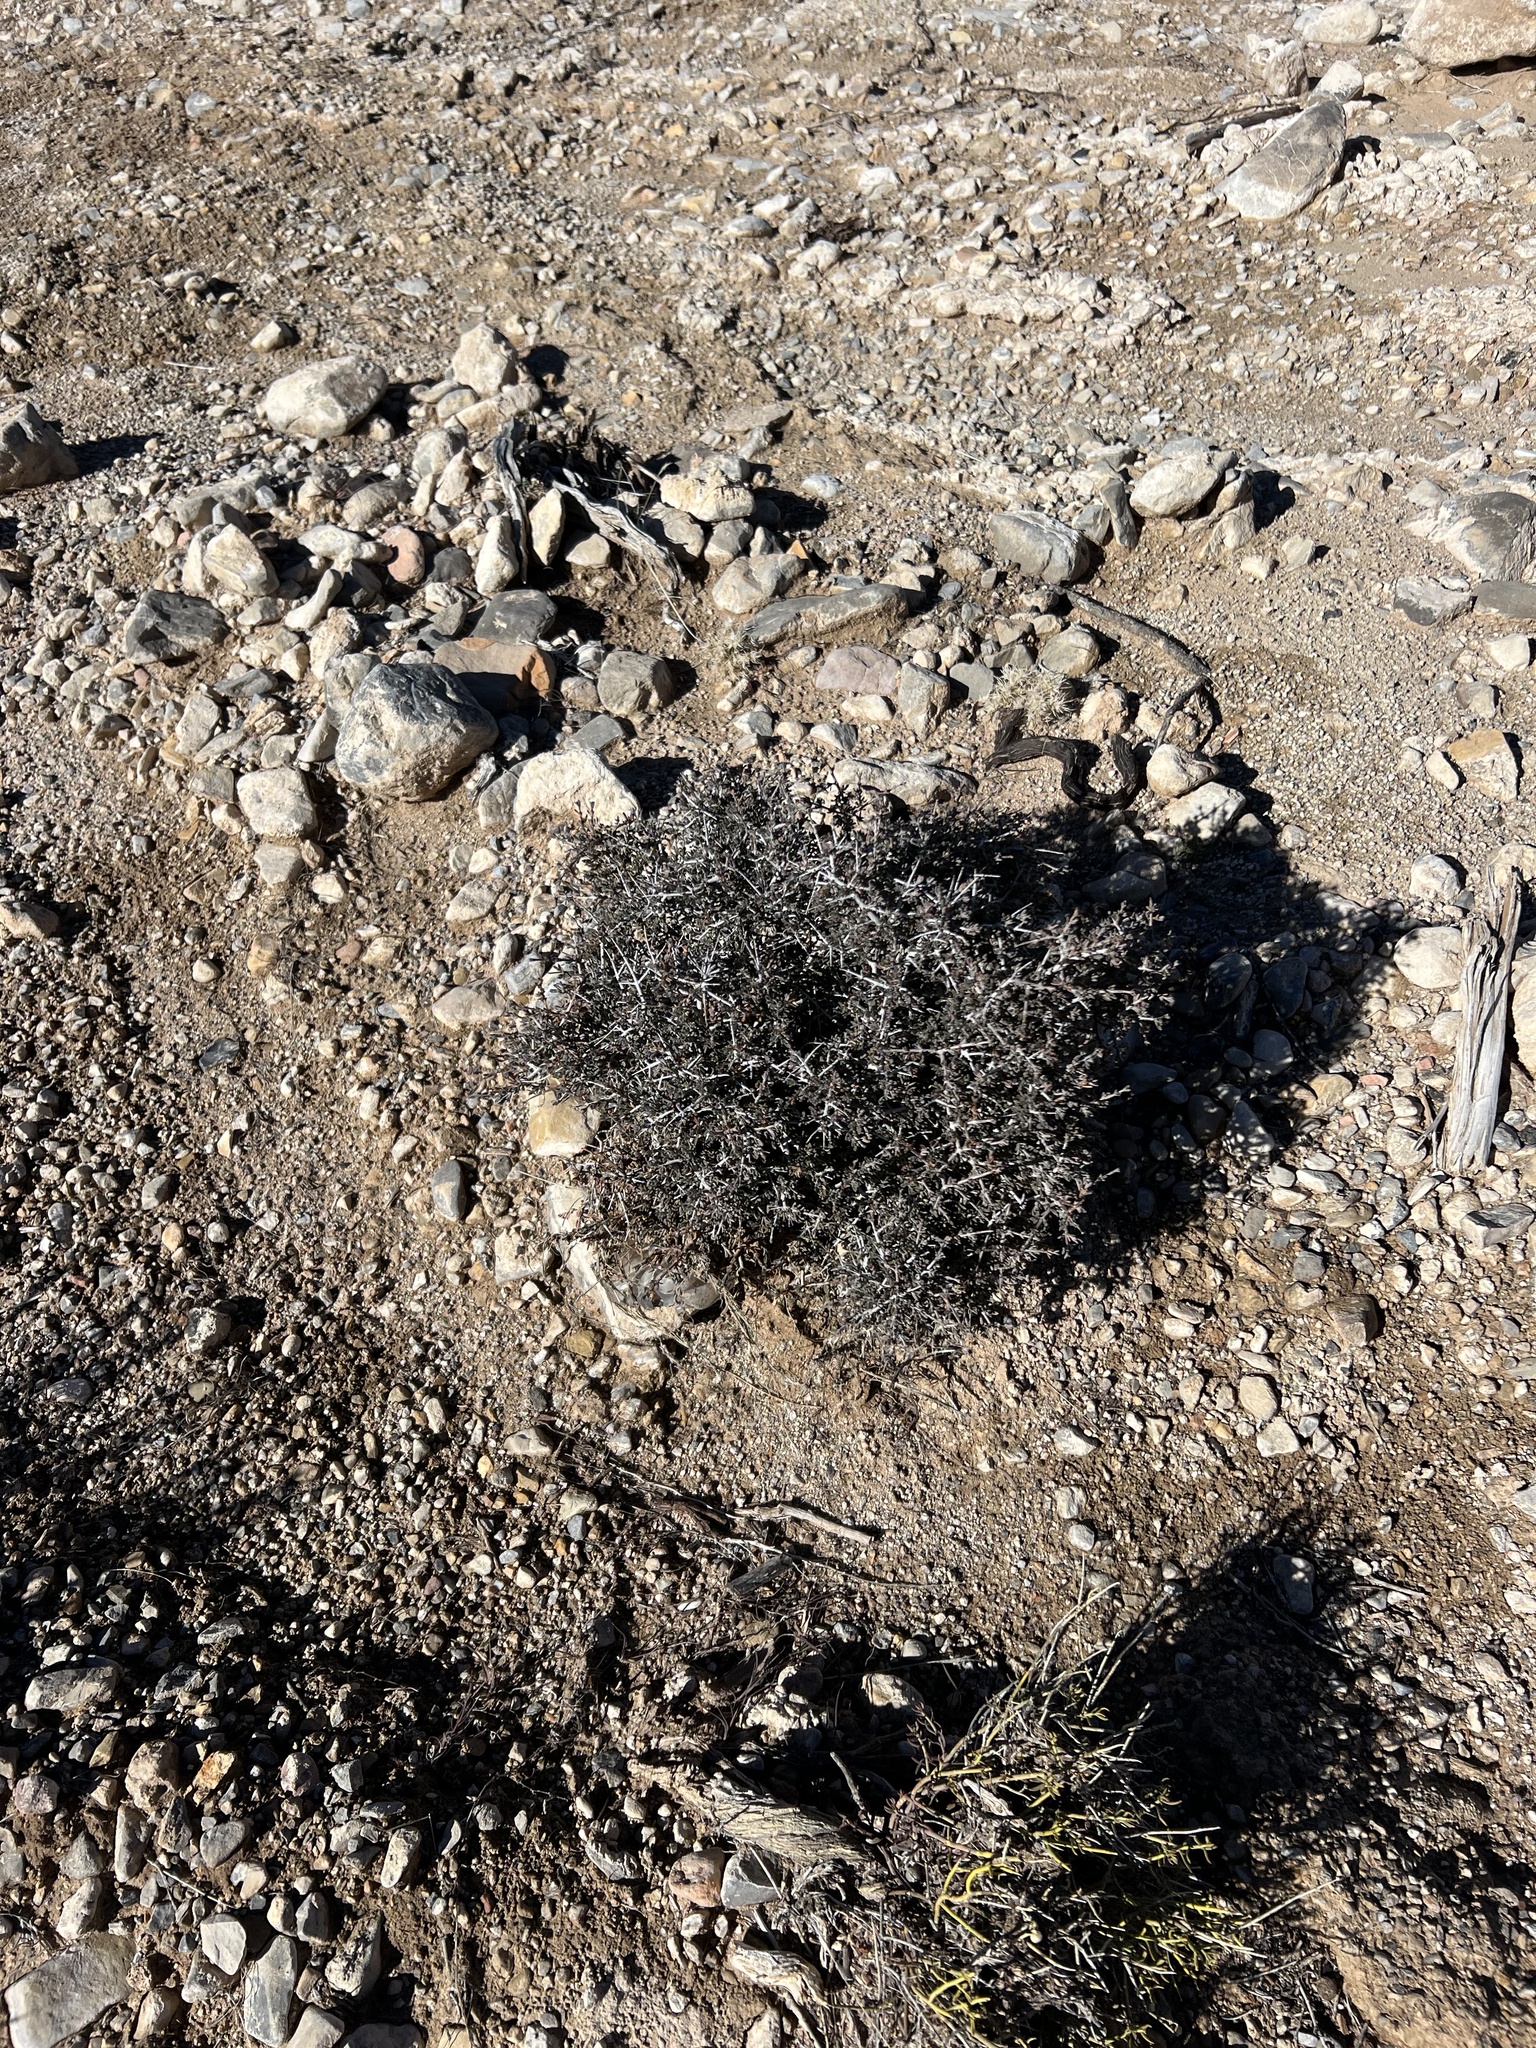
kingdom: Plantae
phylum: Tracheophyta
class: Magnoliopsida
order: Rosales
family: Rosaceae
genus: Coleogyne
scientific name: Coleogyne ramosissima
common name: Blackbrush
